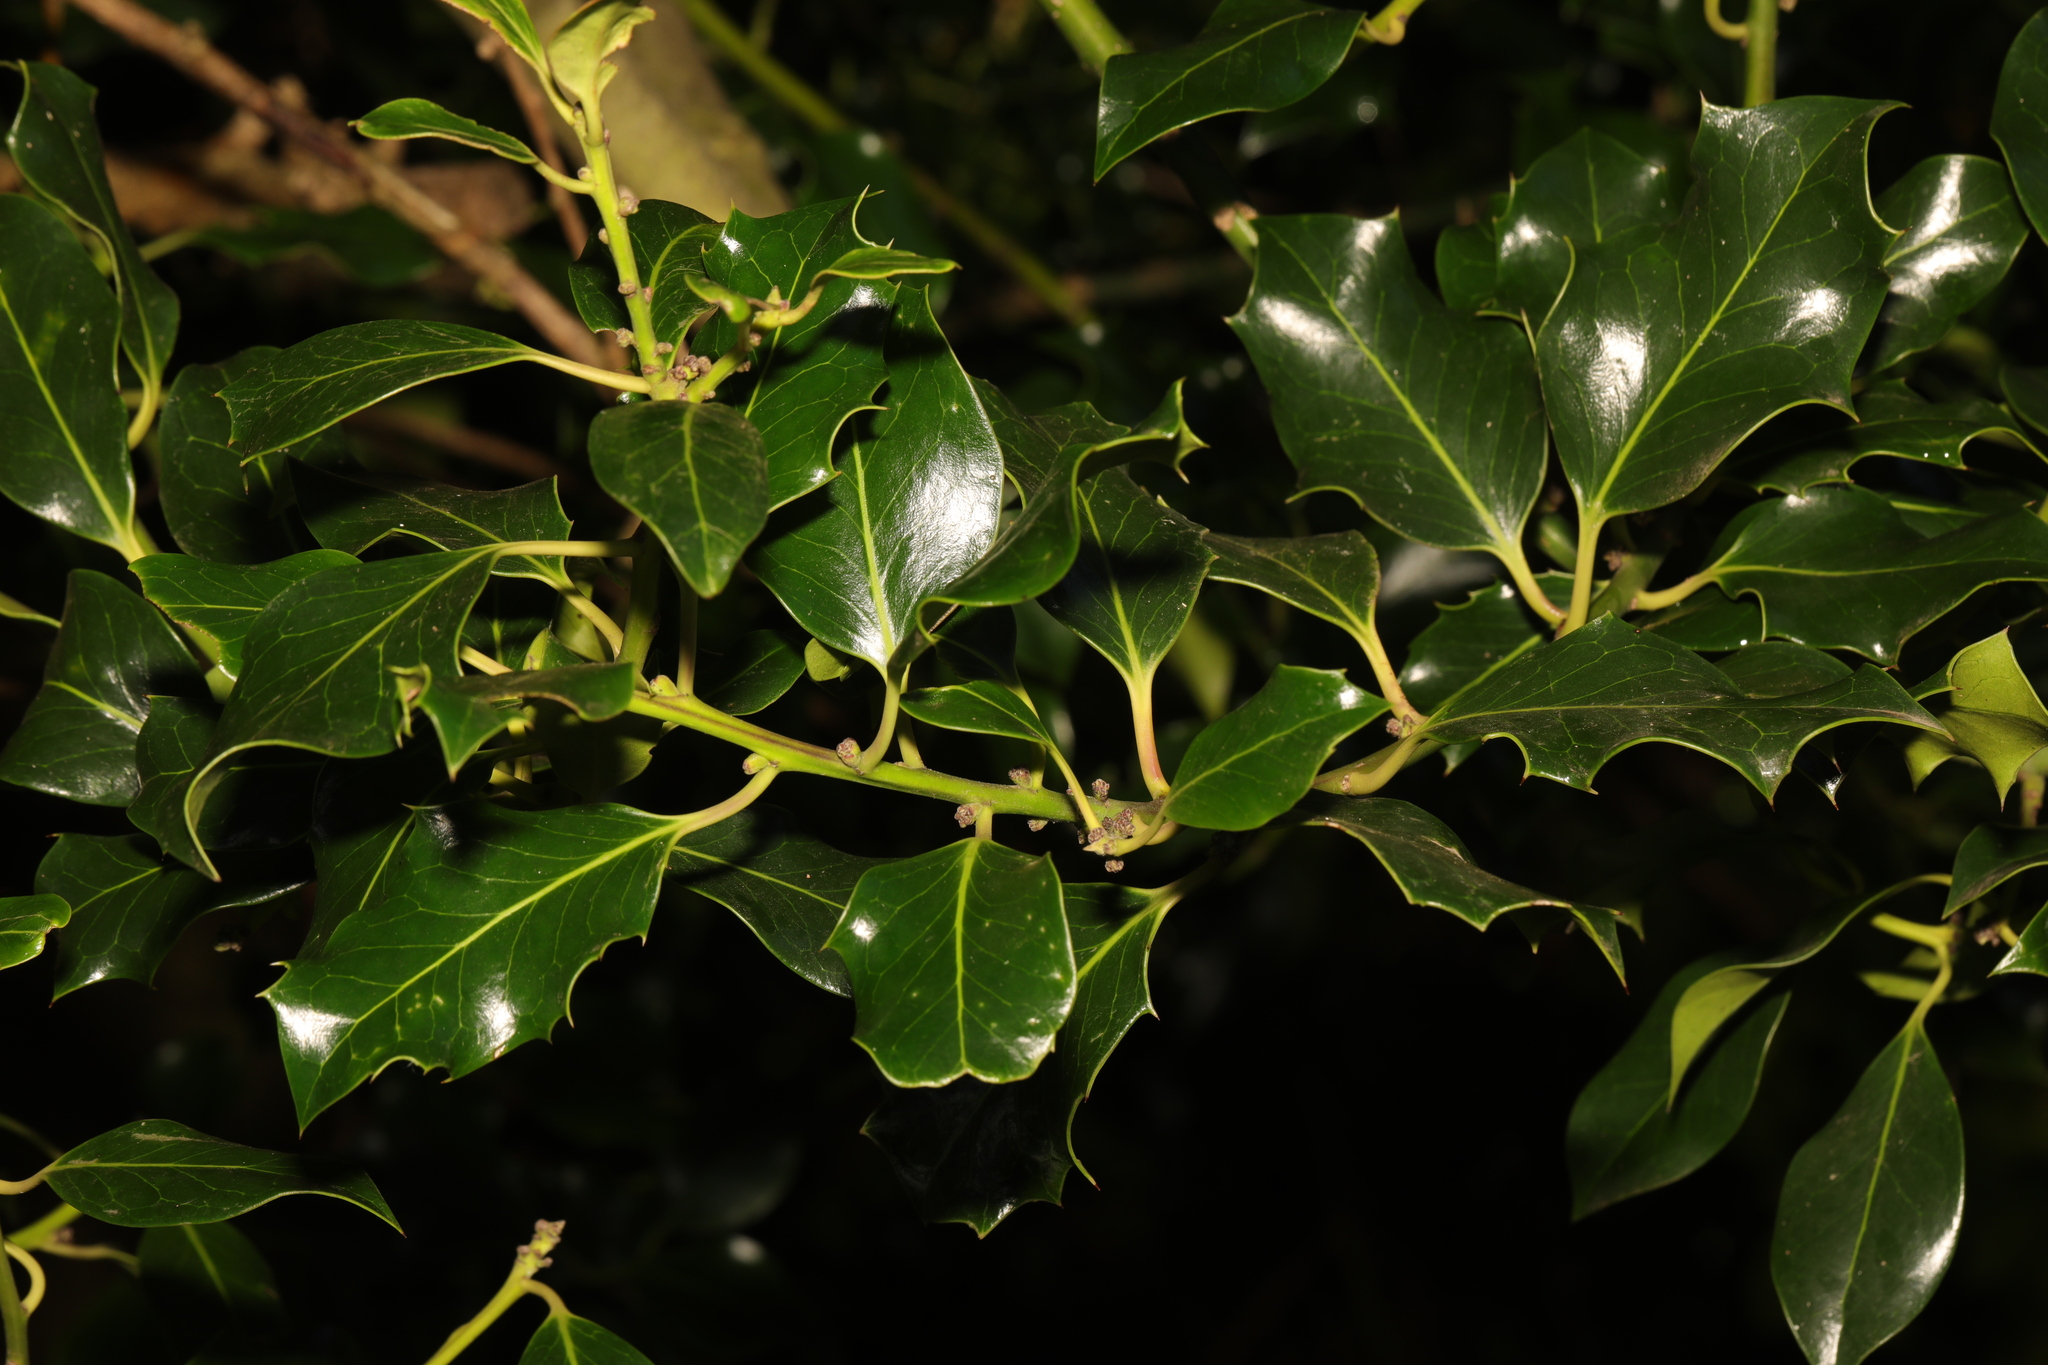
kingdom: Plantae
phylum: Tracheophyta
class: Magnoliopsida
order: Aquifoliales
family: Aquifoliaceae
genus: Ilex
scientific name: Ilex aquifolium
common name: English holly
